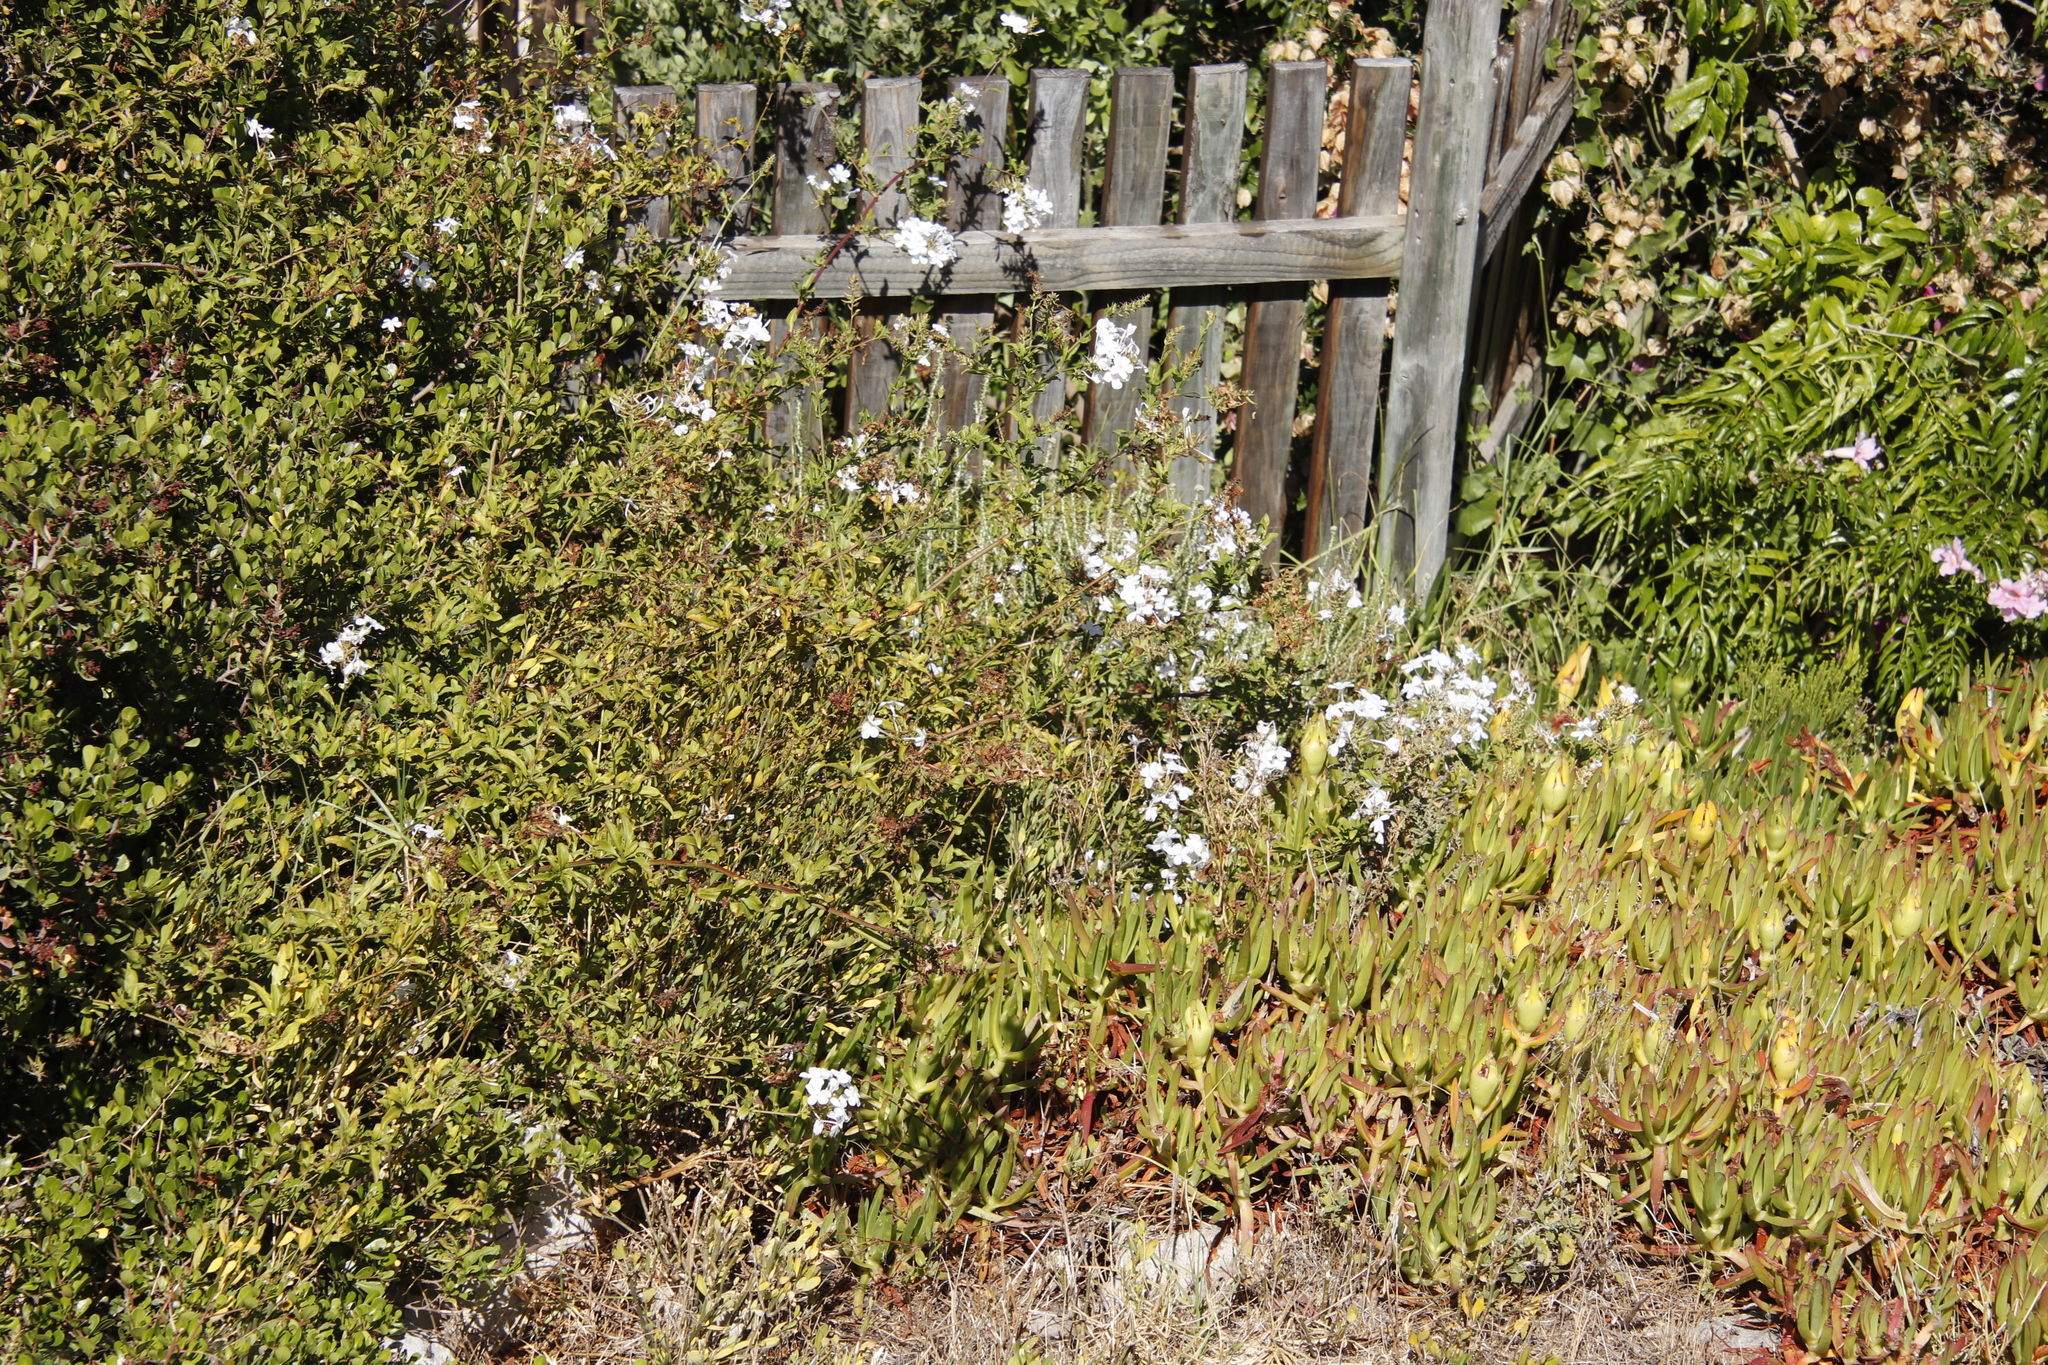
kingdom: Plantae
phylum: Tracheophyta
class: Magnoliopsida
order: Caryophyllales
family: Plumbaginaceae
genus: Plumbago
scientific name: Plumbago auriculata
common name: Cape leadwort
